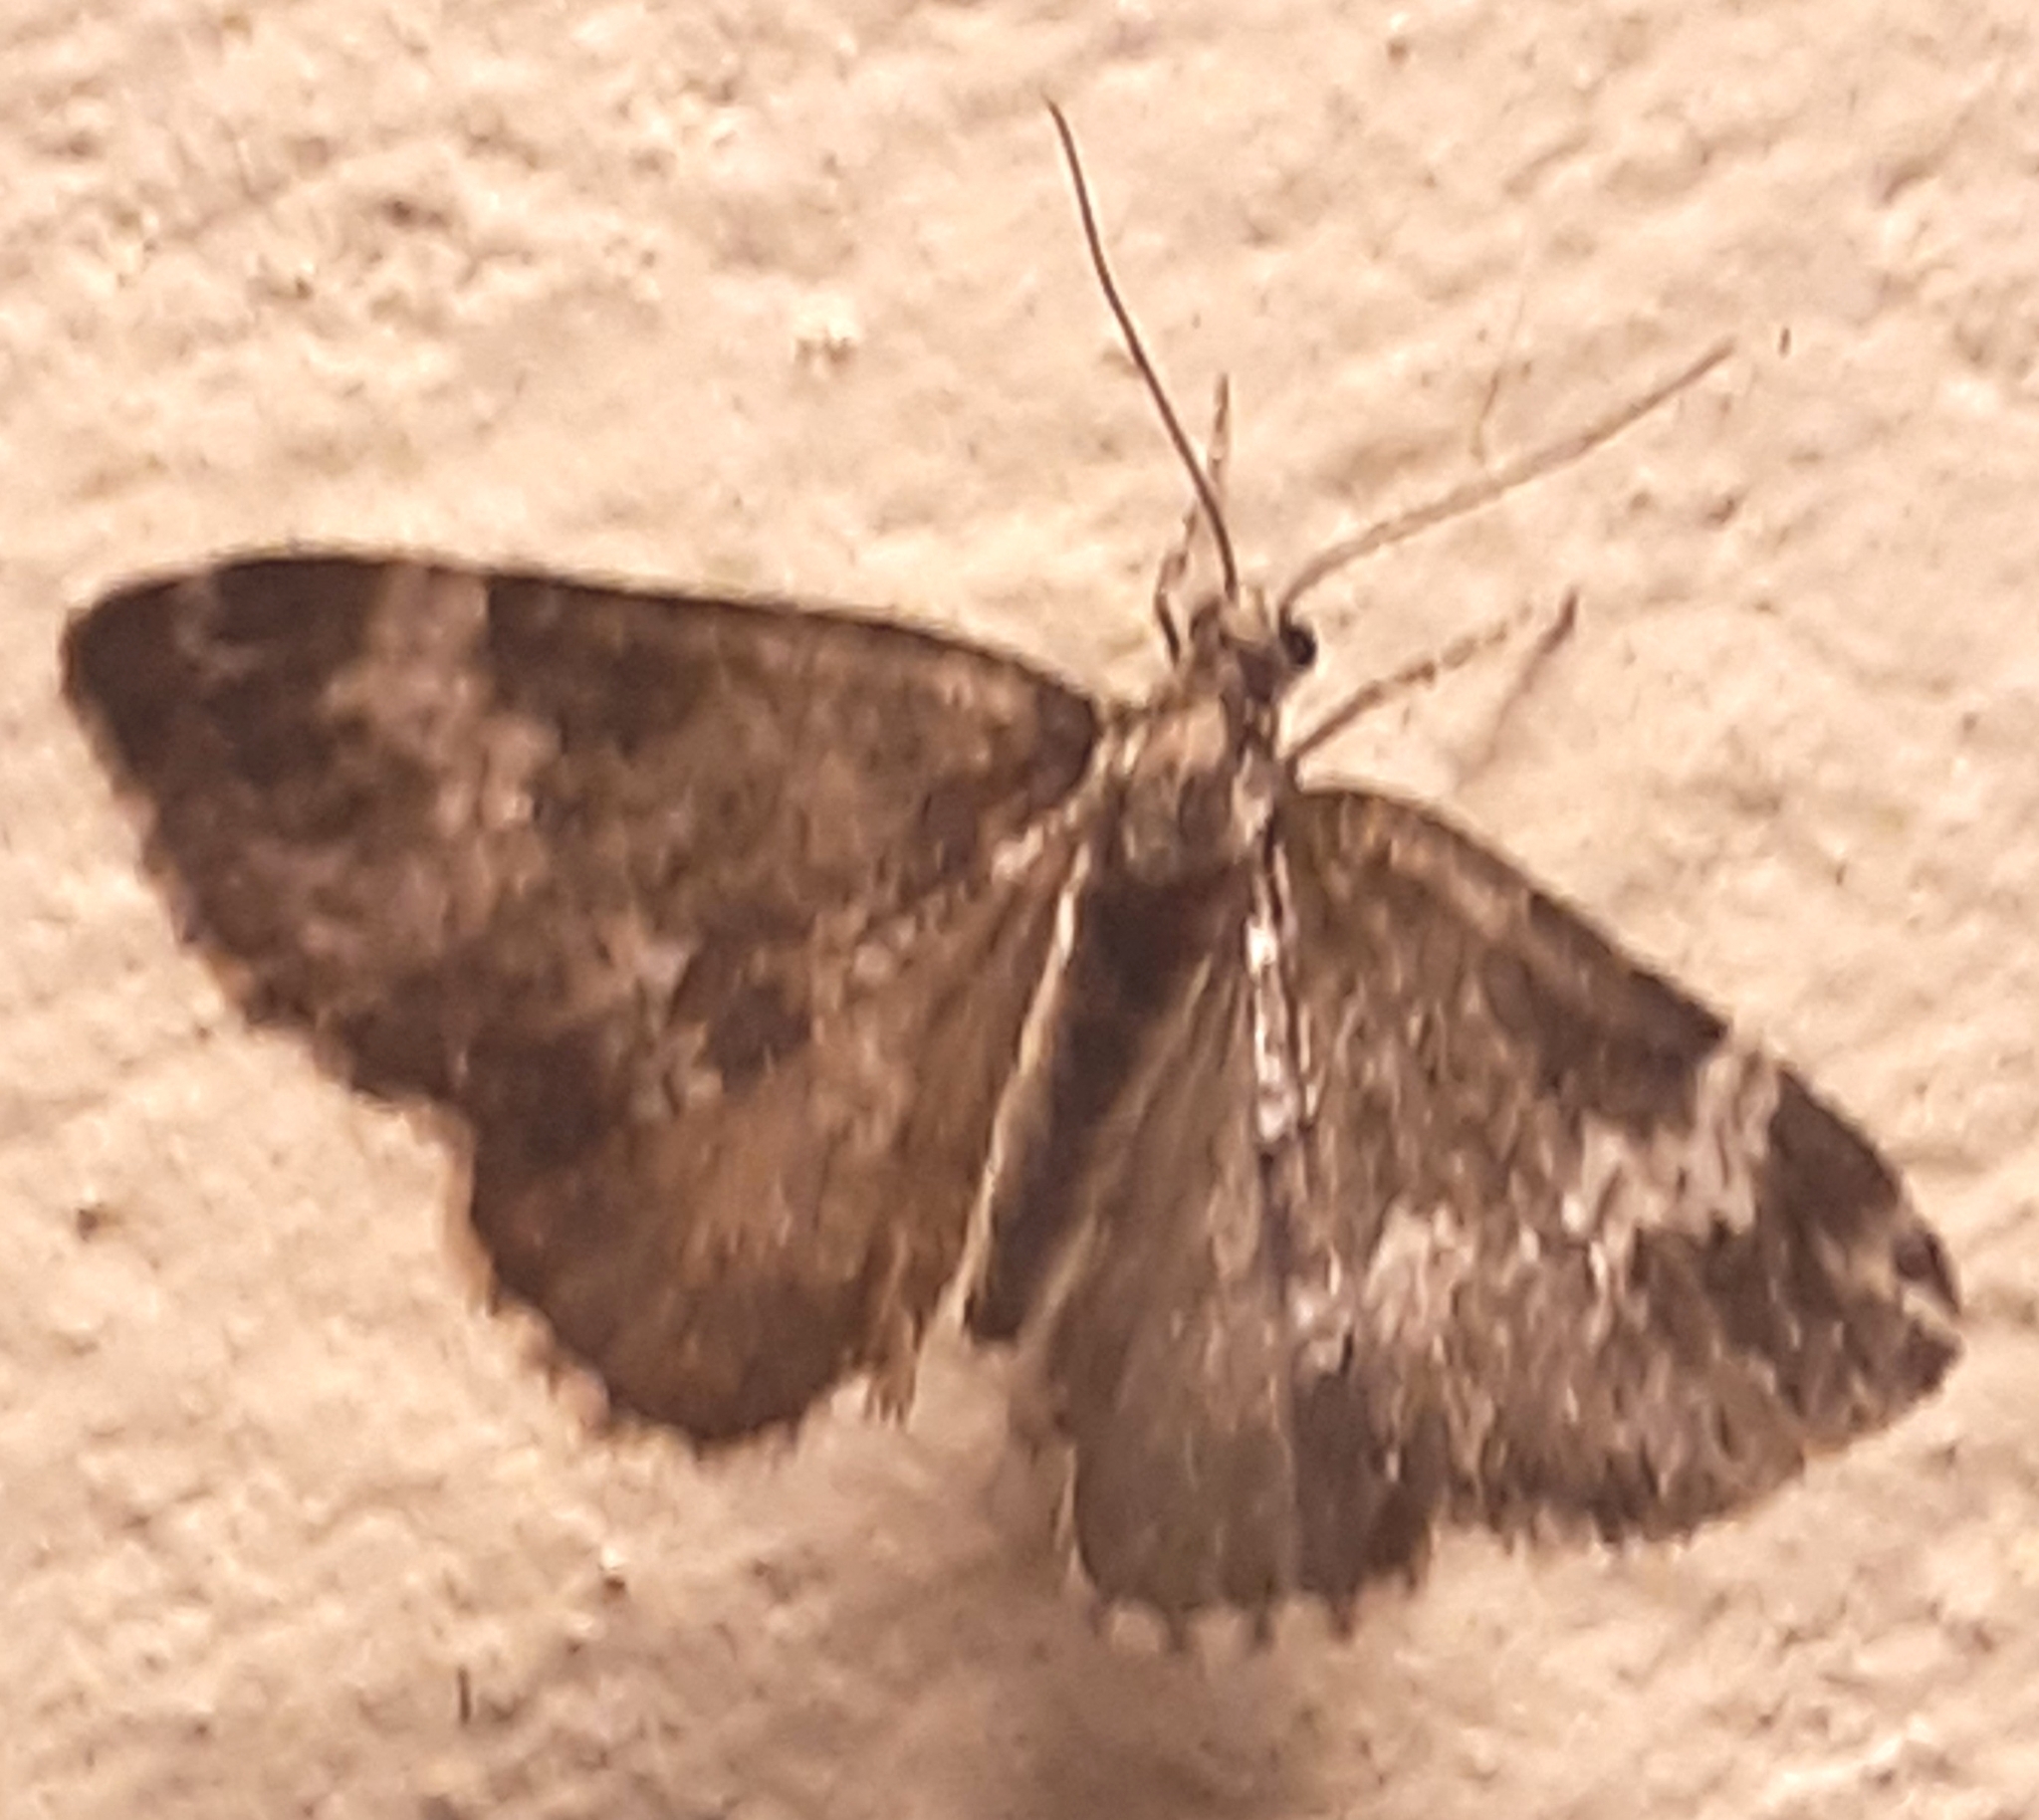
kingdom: Animalia
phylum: Arthropoda
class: Insecta
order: Lepidoptera
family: Geometridae
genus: Perizoma
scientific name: Perizoma alchemillata
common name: Small rivulet
